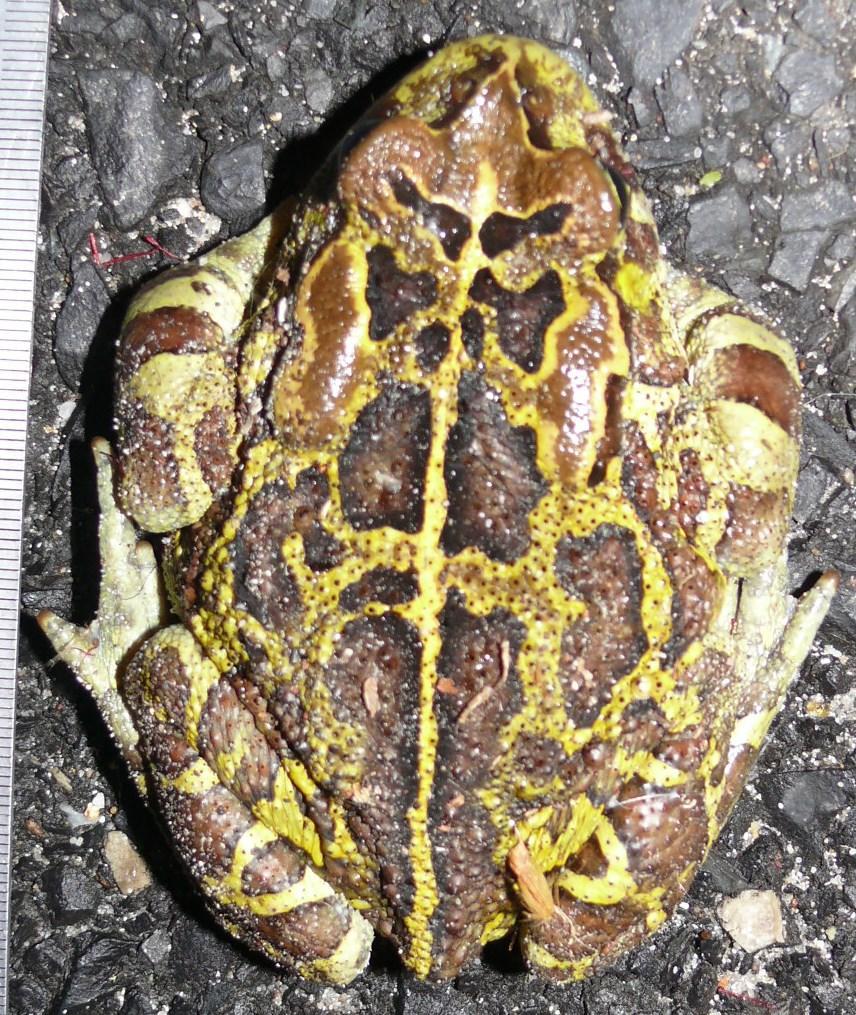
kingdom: Animalia
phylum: Chordata
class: Amphibia
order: Anura
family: Bufonidae
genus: Sclerophrys
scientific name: Sclerophrys pantherina
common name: Panther toad
